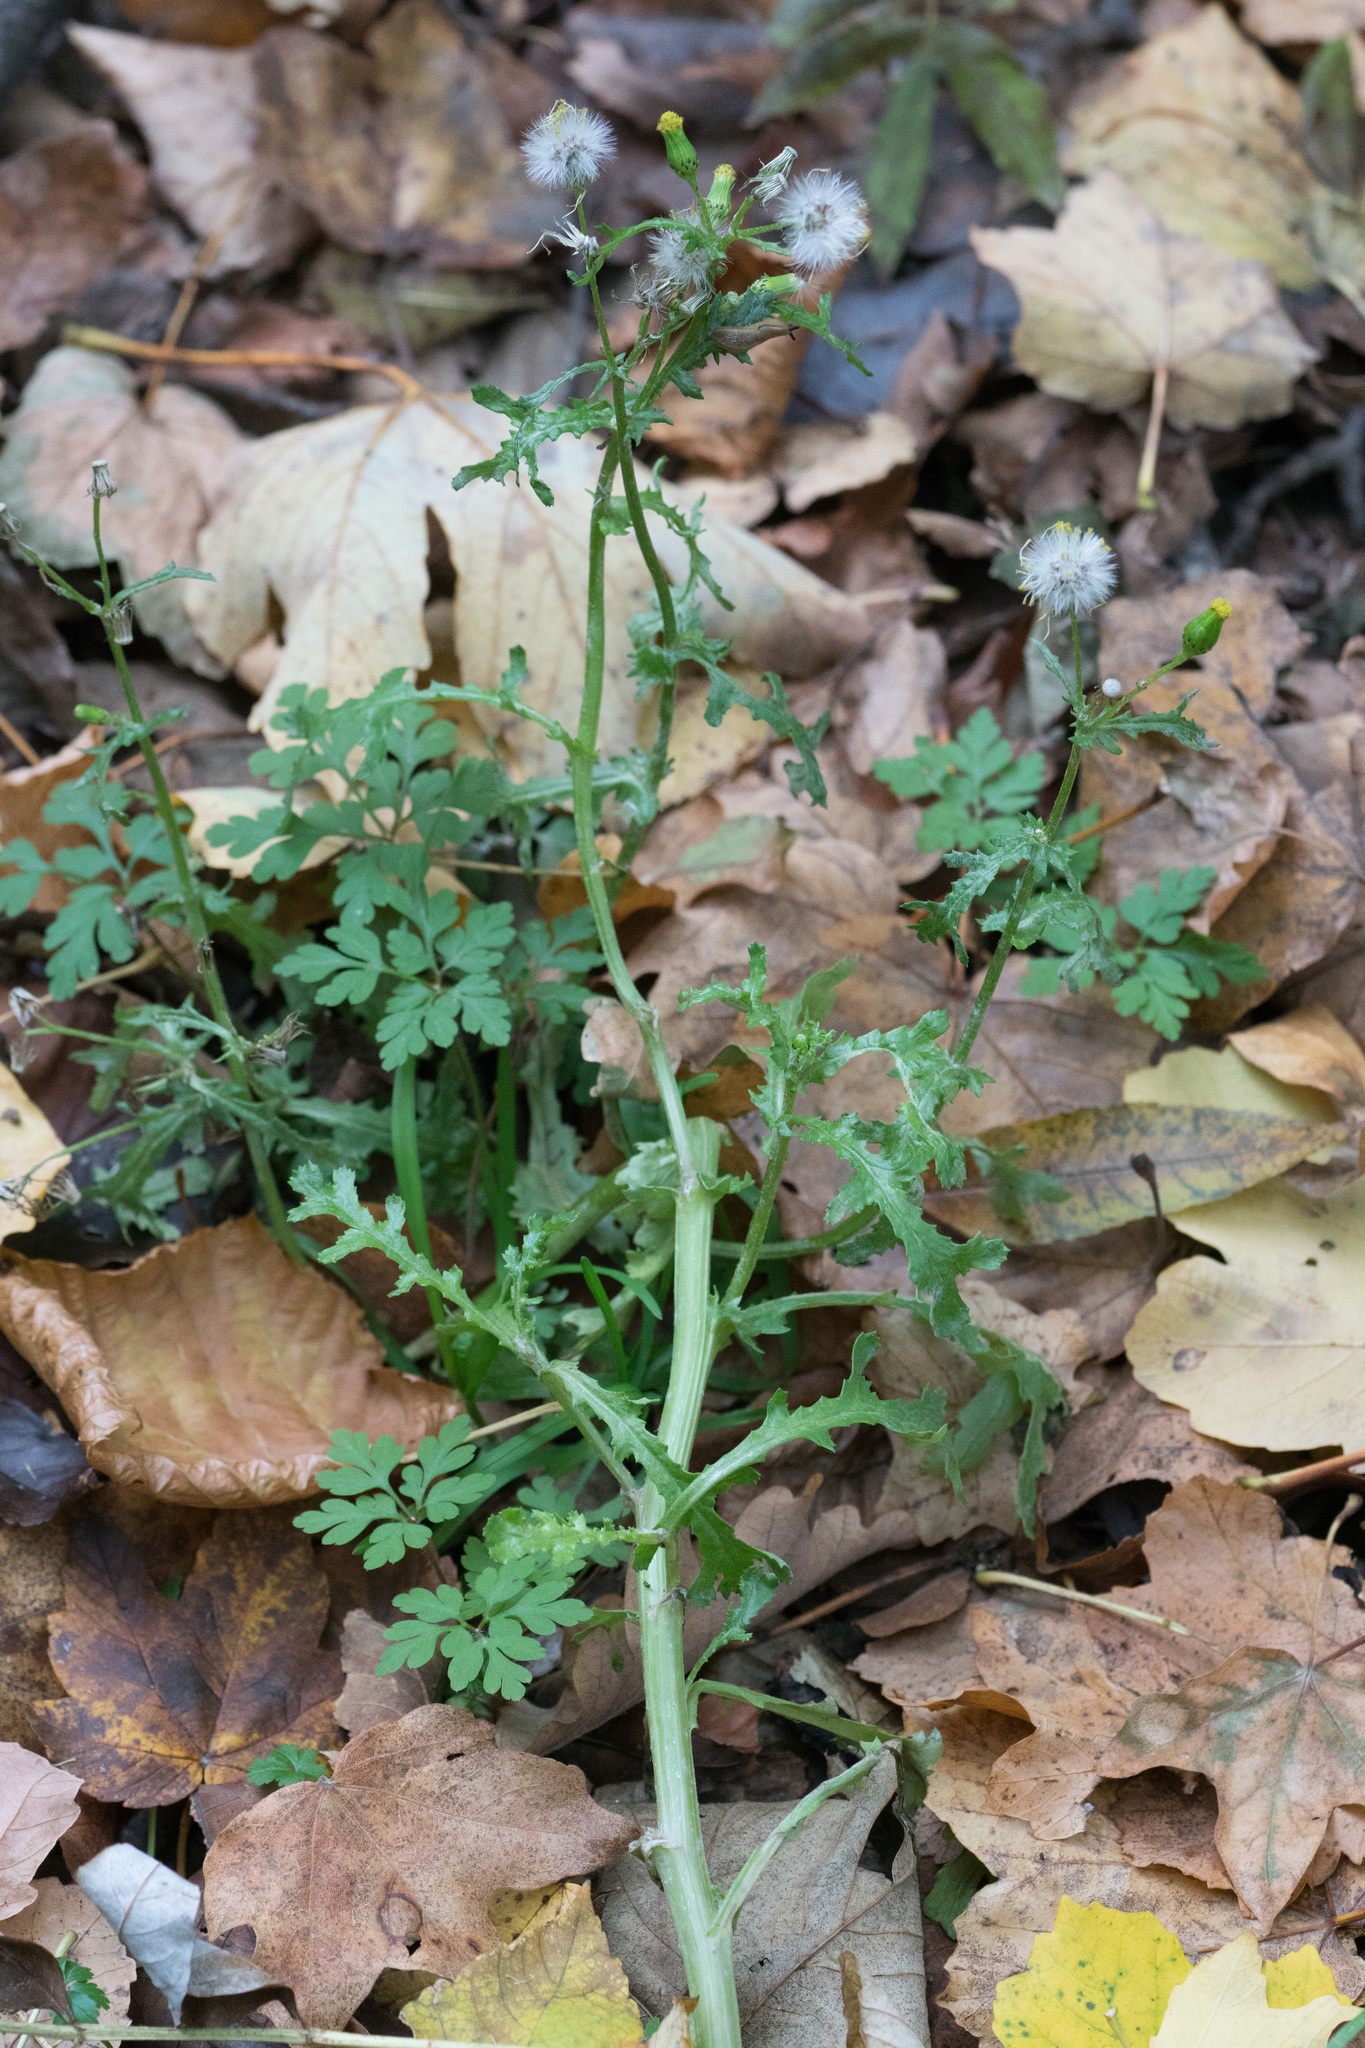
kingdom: Plantae
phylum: Tracheophyta
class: Magnoliopsida
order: Asterales
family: Asteraceae
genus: Senecio
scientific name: Senecio vulgaris
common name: Old-man-in-the-spring
